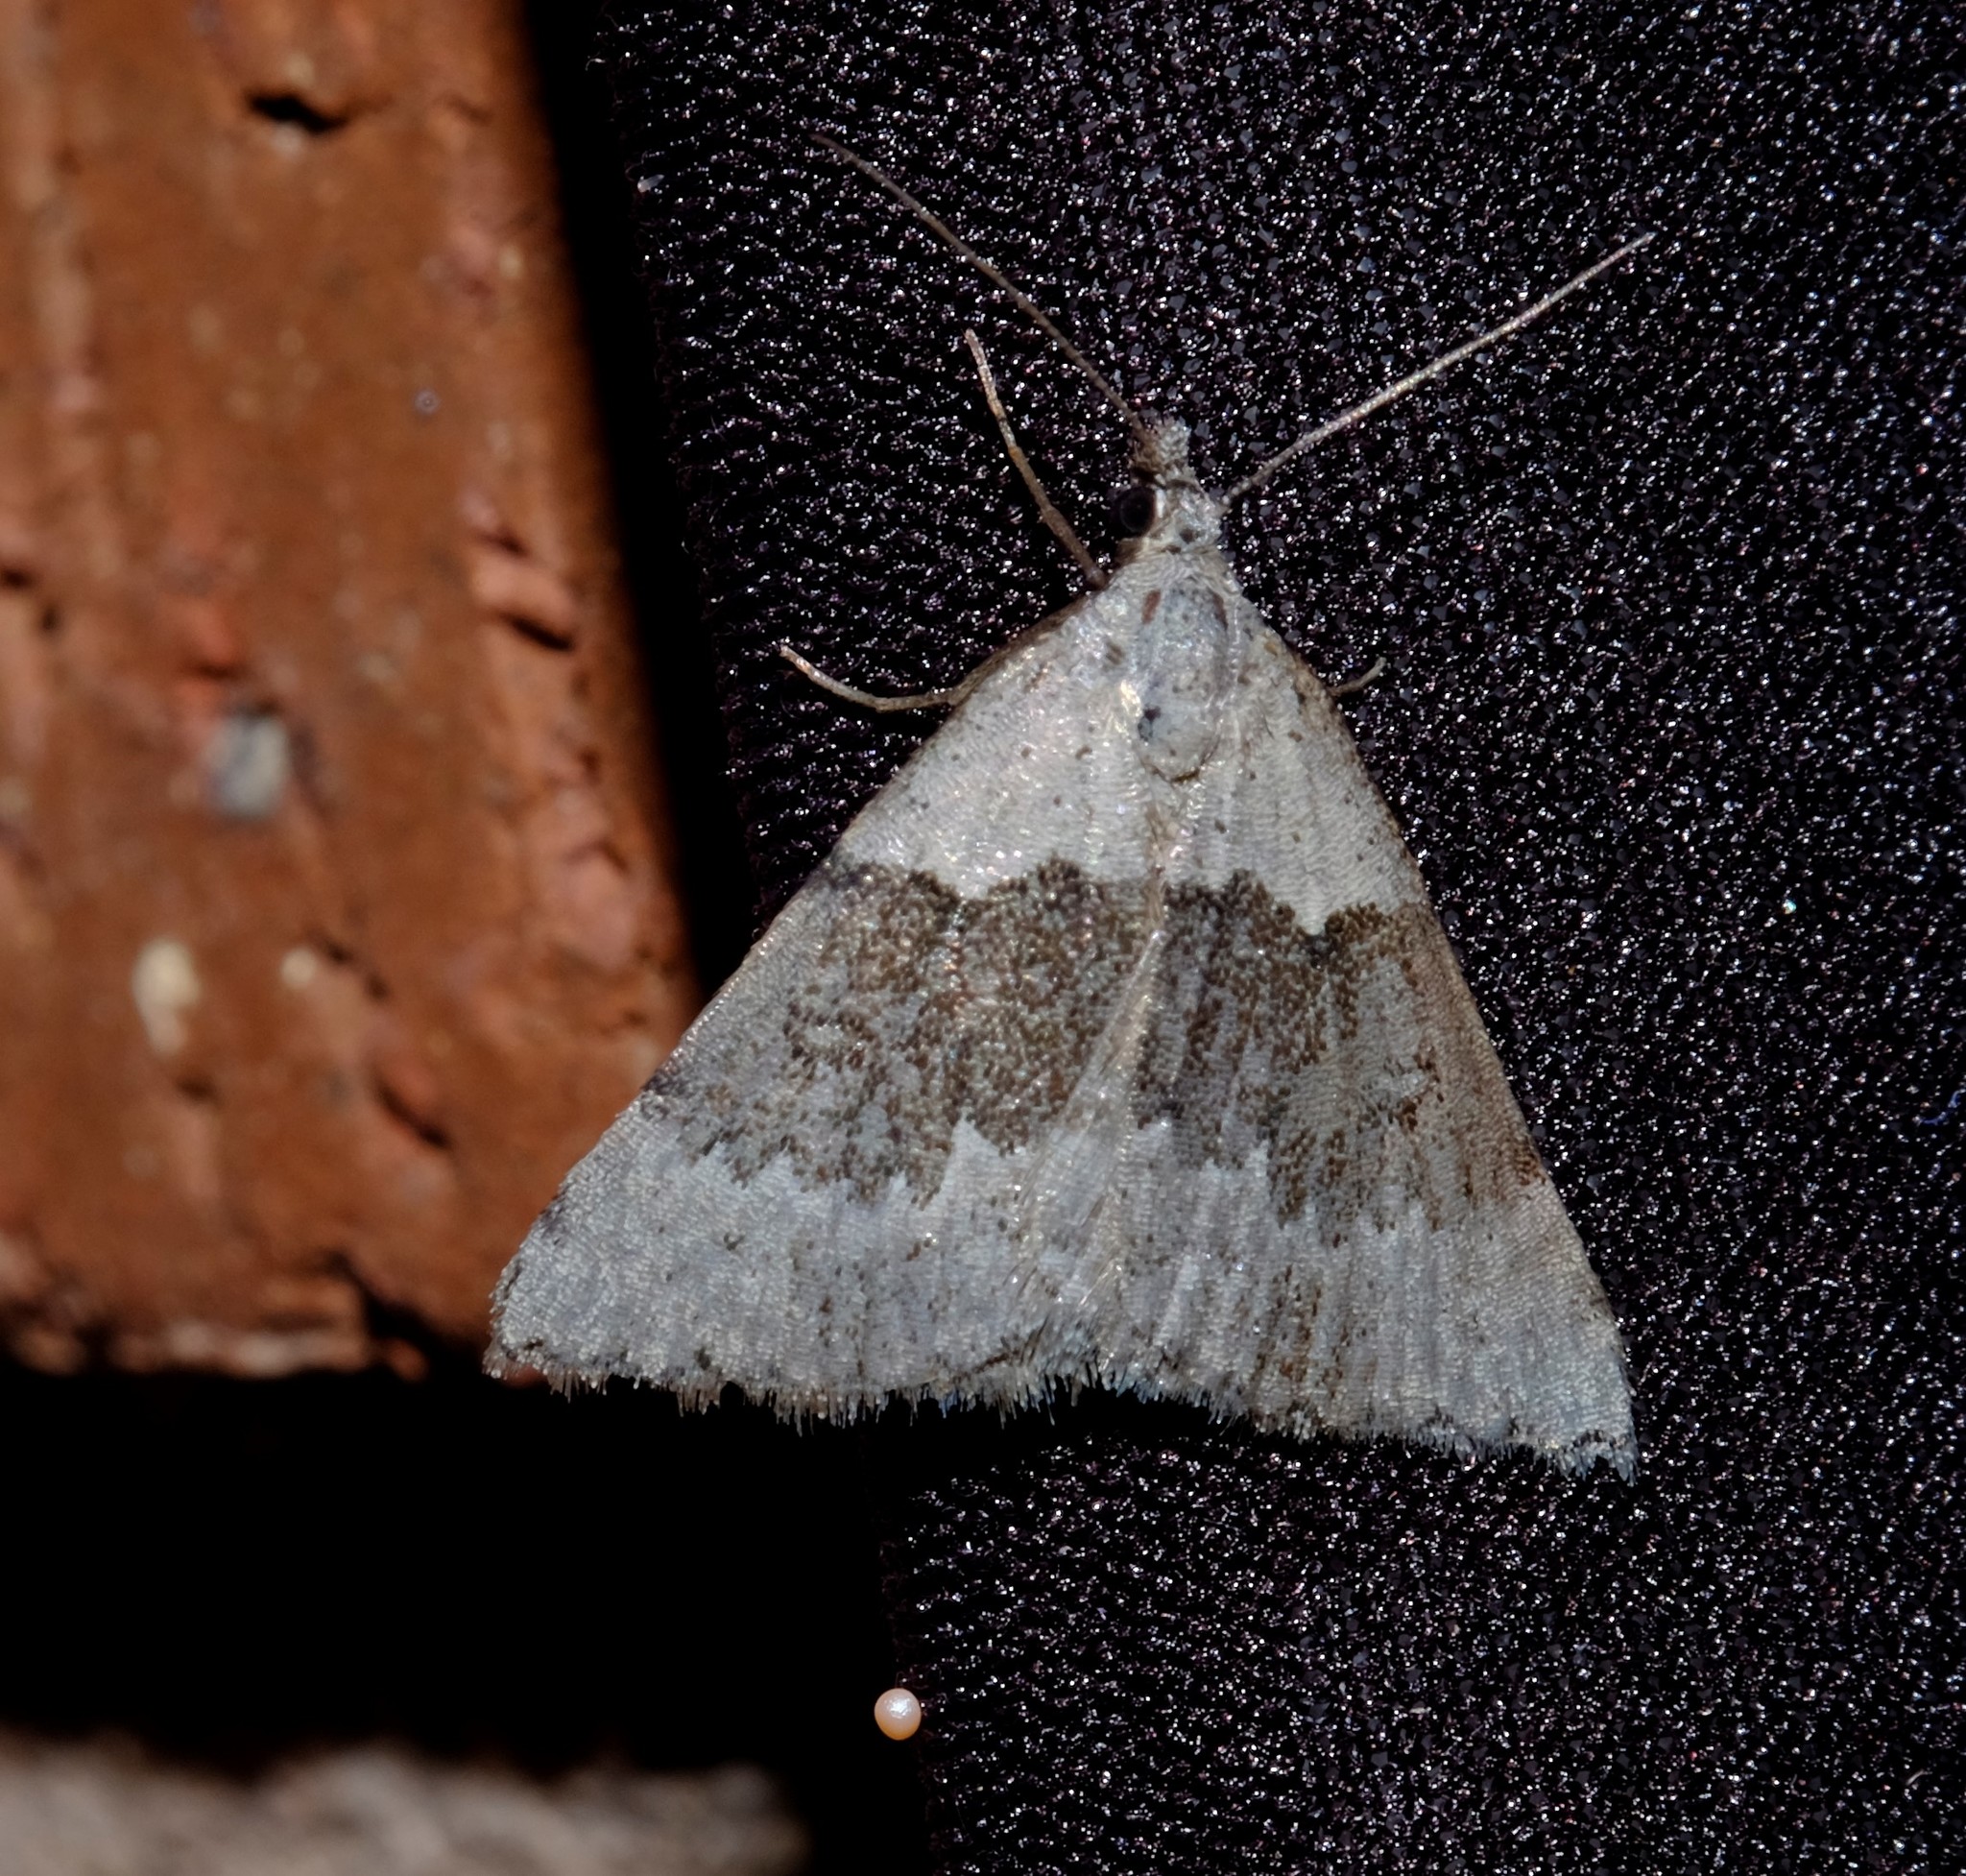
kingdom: Animalia
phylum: Arthropoda
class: Insecta
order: Lepidoptera
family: Geometridae
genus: Dichromodes
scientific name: Dichromodes indicataria
